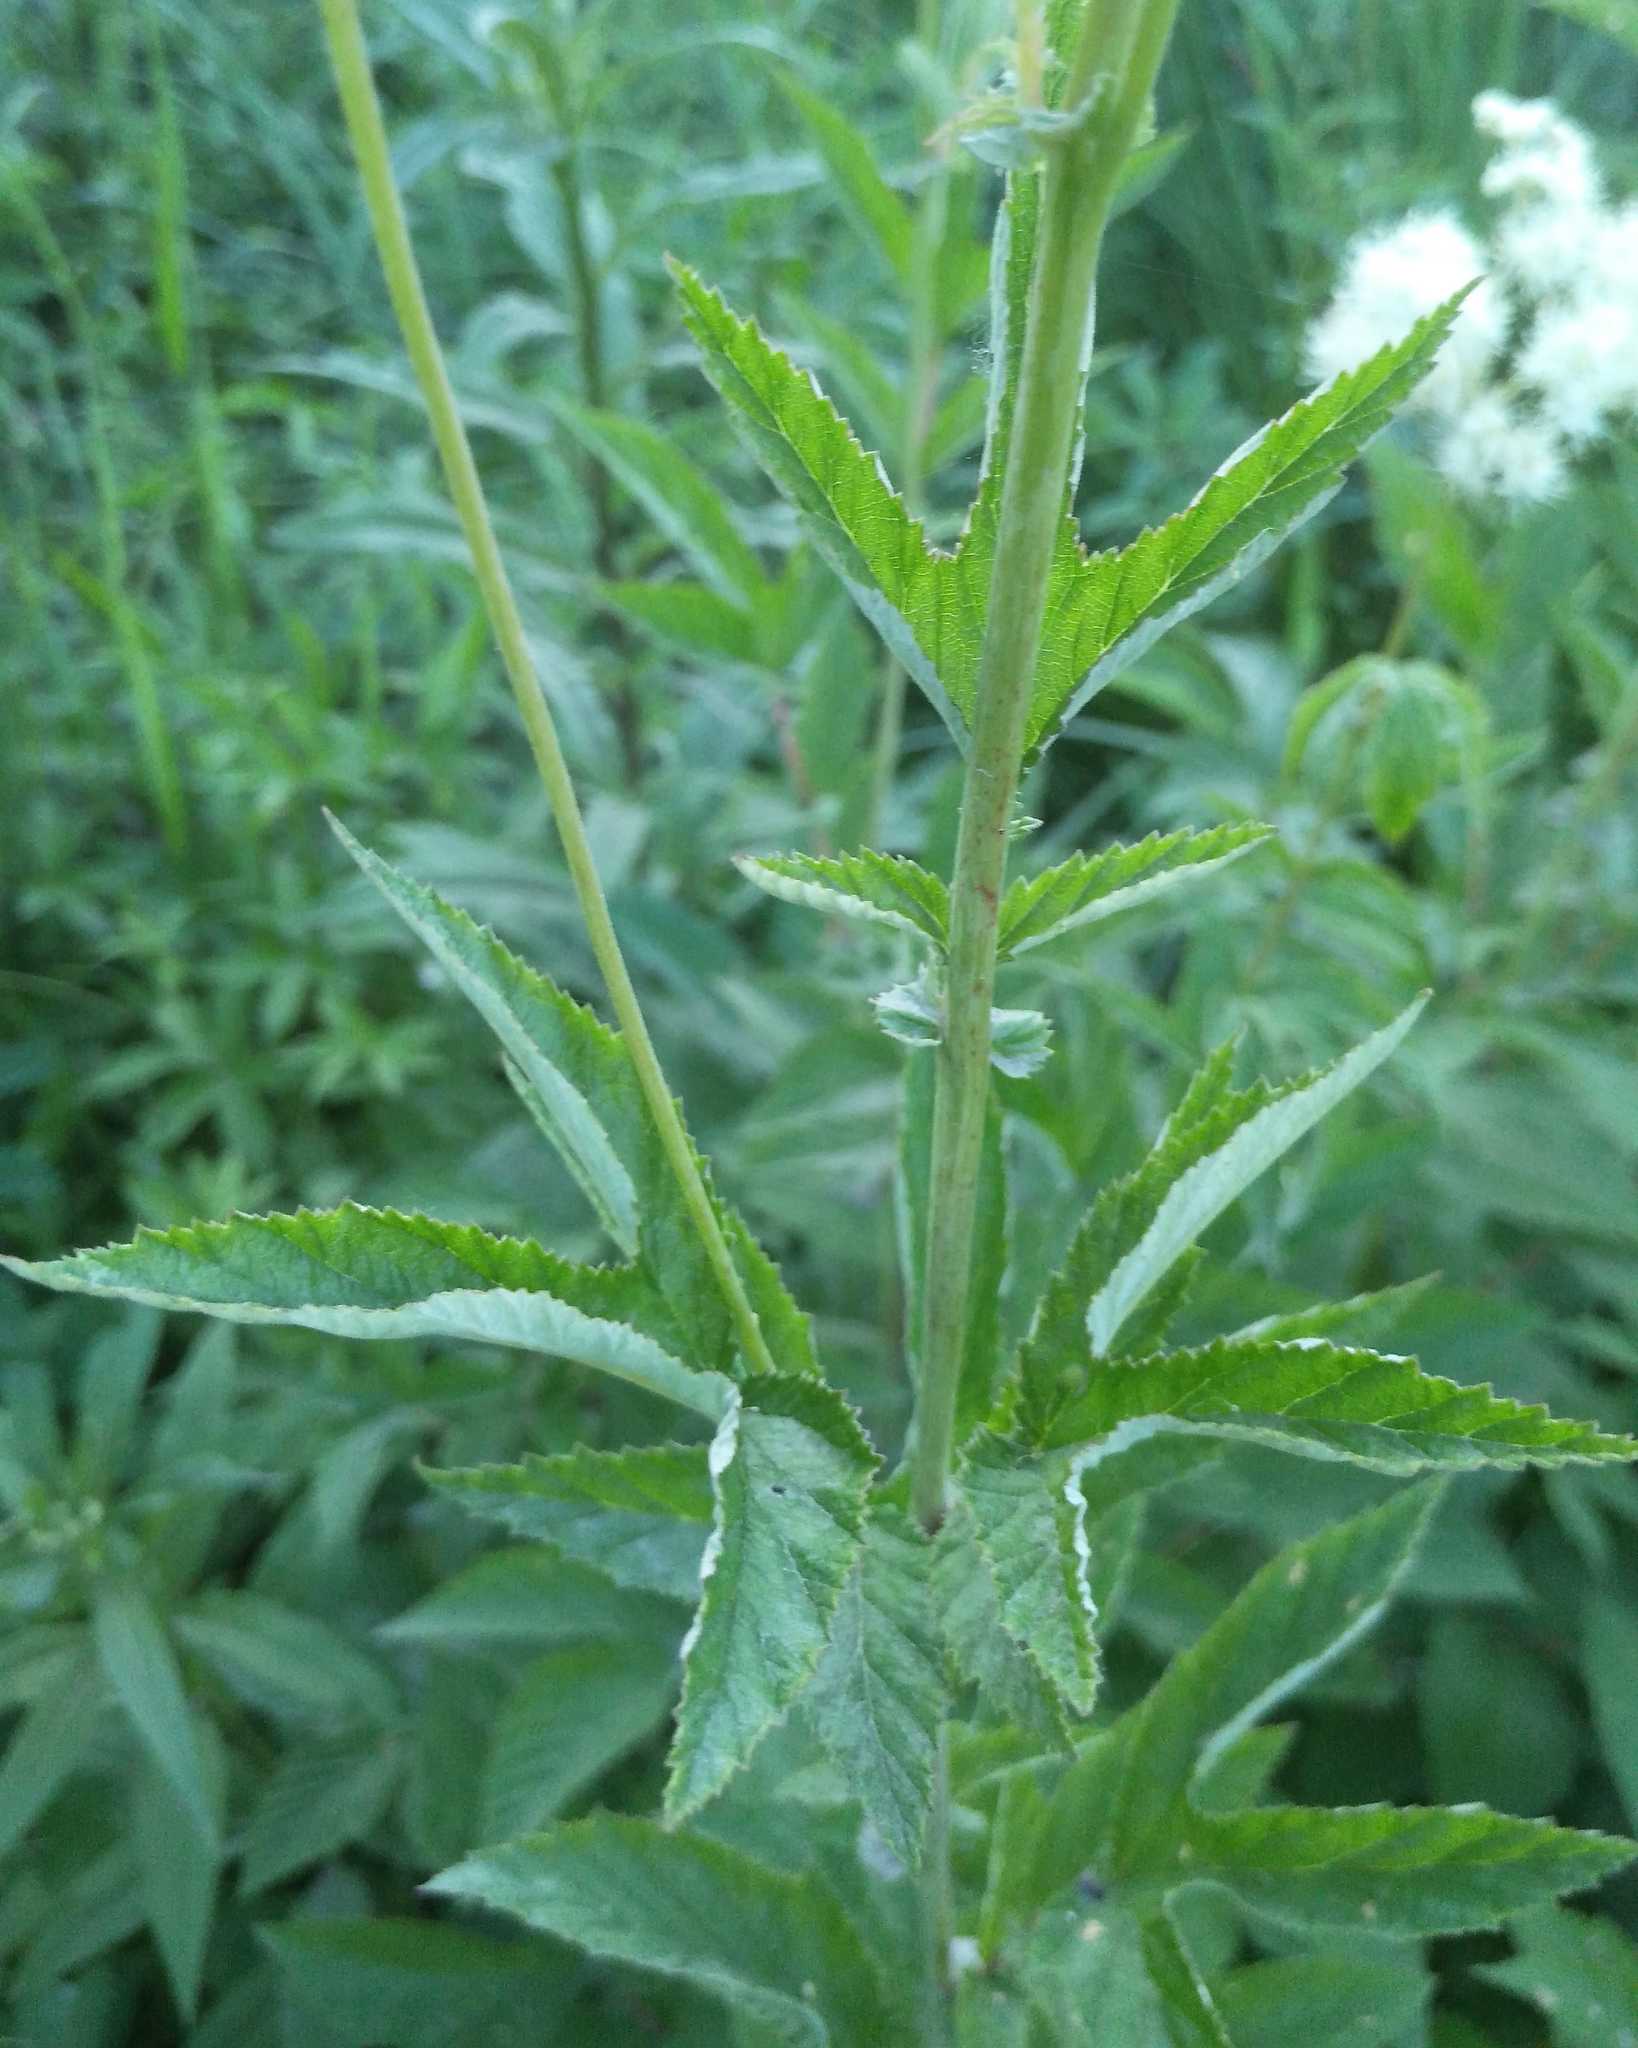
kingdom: Plantae
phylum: Tracheophyta
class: Magnoliopsida
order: Rosales
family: Rosaceae
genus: Filipendula
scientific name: Filipendula ulmaria
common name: Meadowsweet
